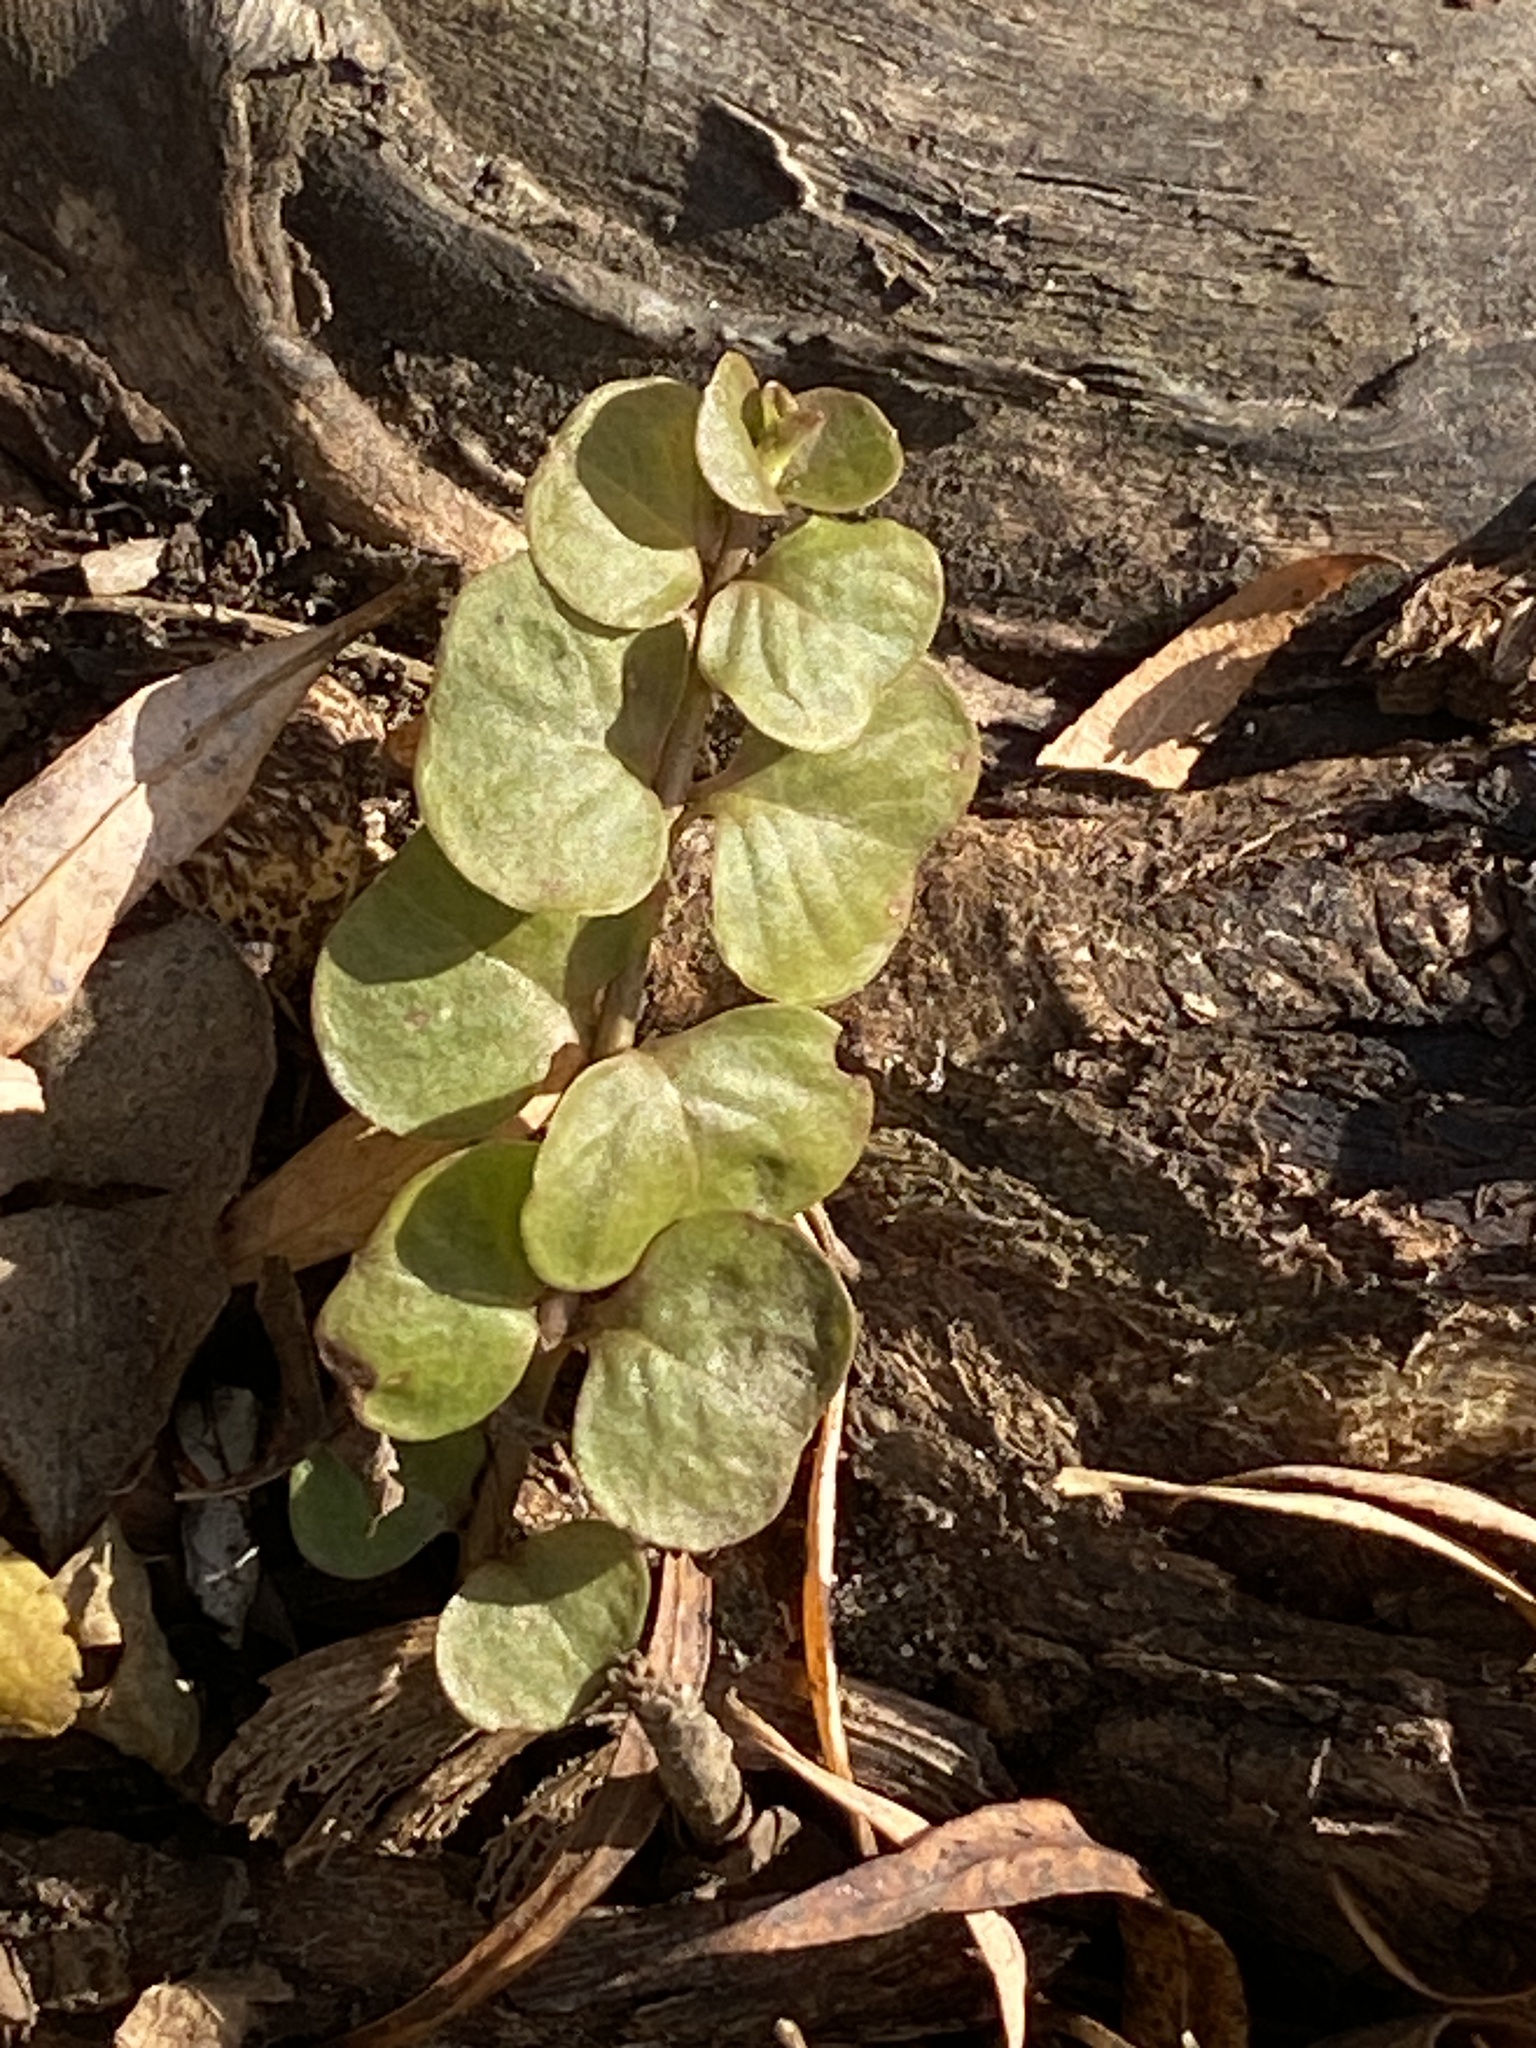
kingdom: Plantae
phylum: Tracheophyta
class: Magnoliopsida
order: Ericales
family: Primulaceae
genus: Lysimachia
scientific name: Lysimachia nummularia
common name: Moneywort
